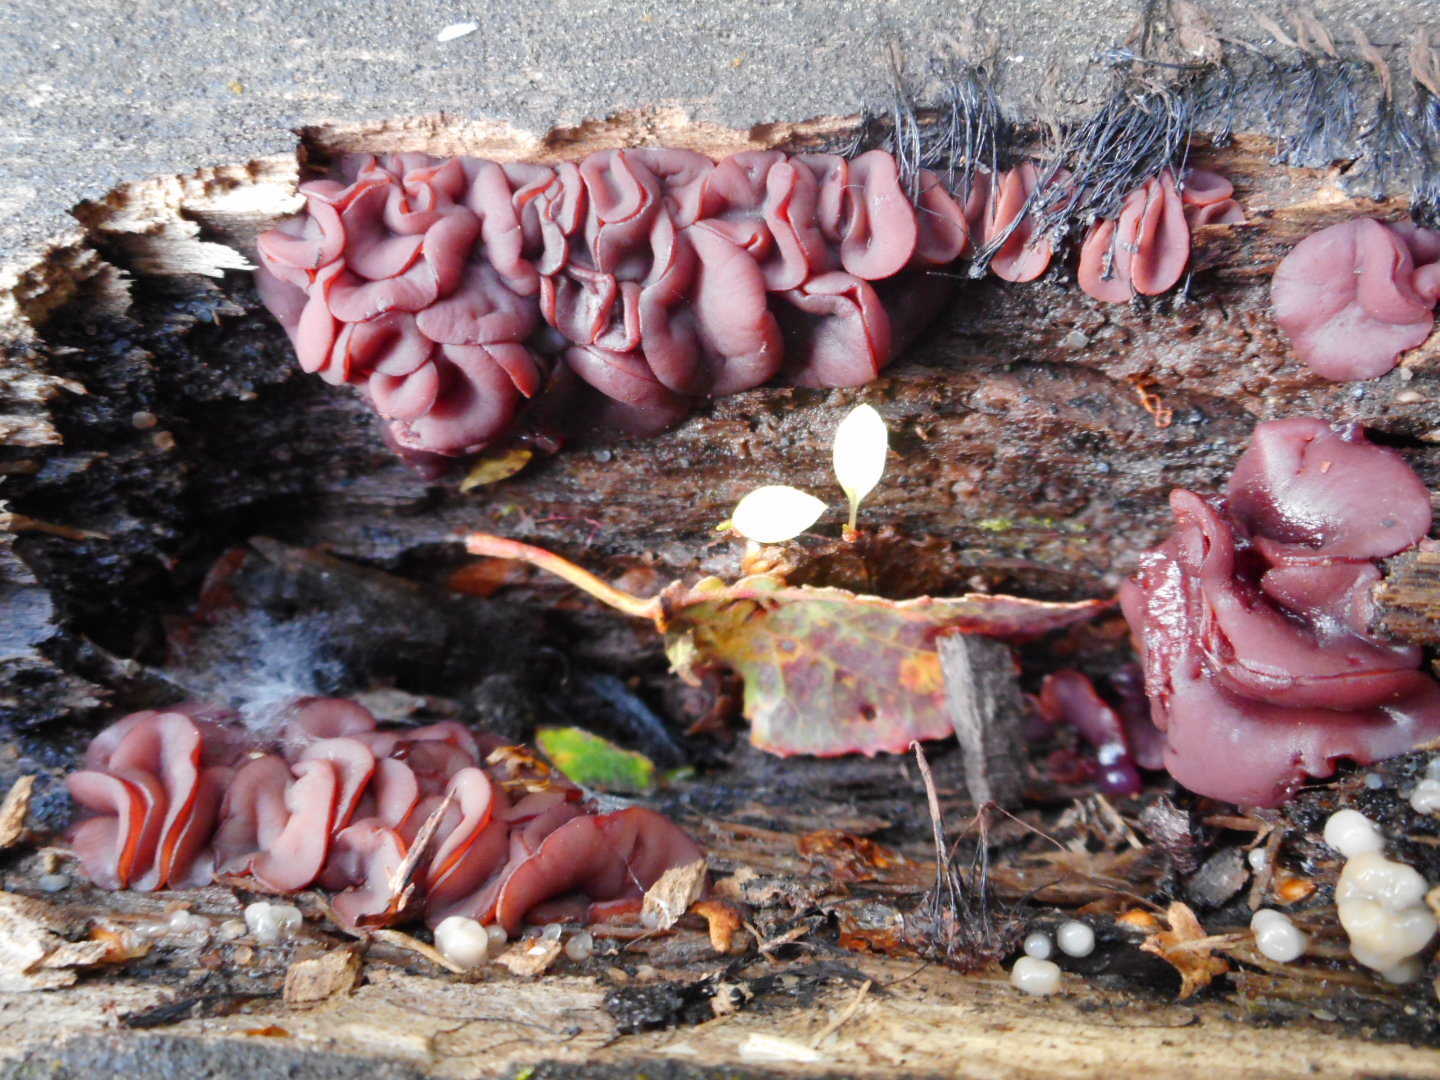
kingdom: Fungi
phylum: Ascomycota
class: Leotiomycetes
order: Helotiales
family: Gelatinodiscaceae
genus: Ascocoryne
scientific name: Ascocoryne cylichnium
